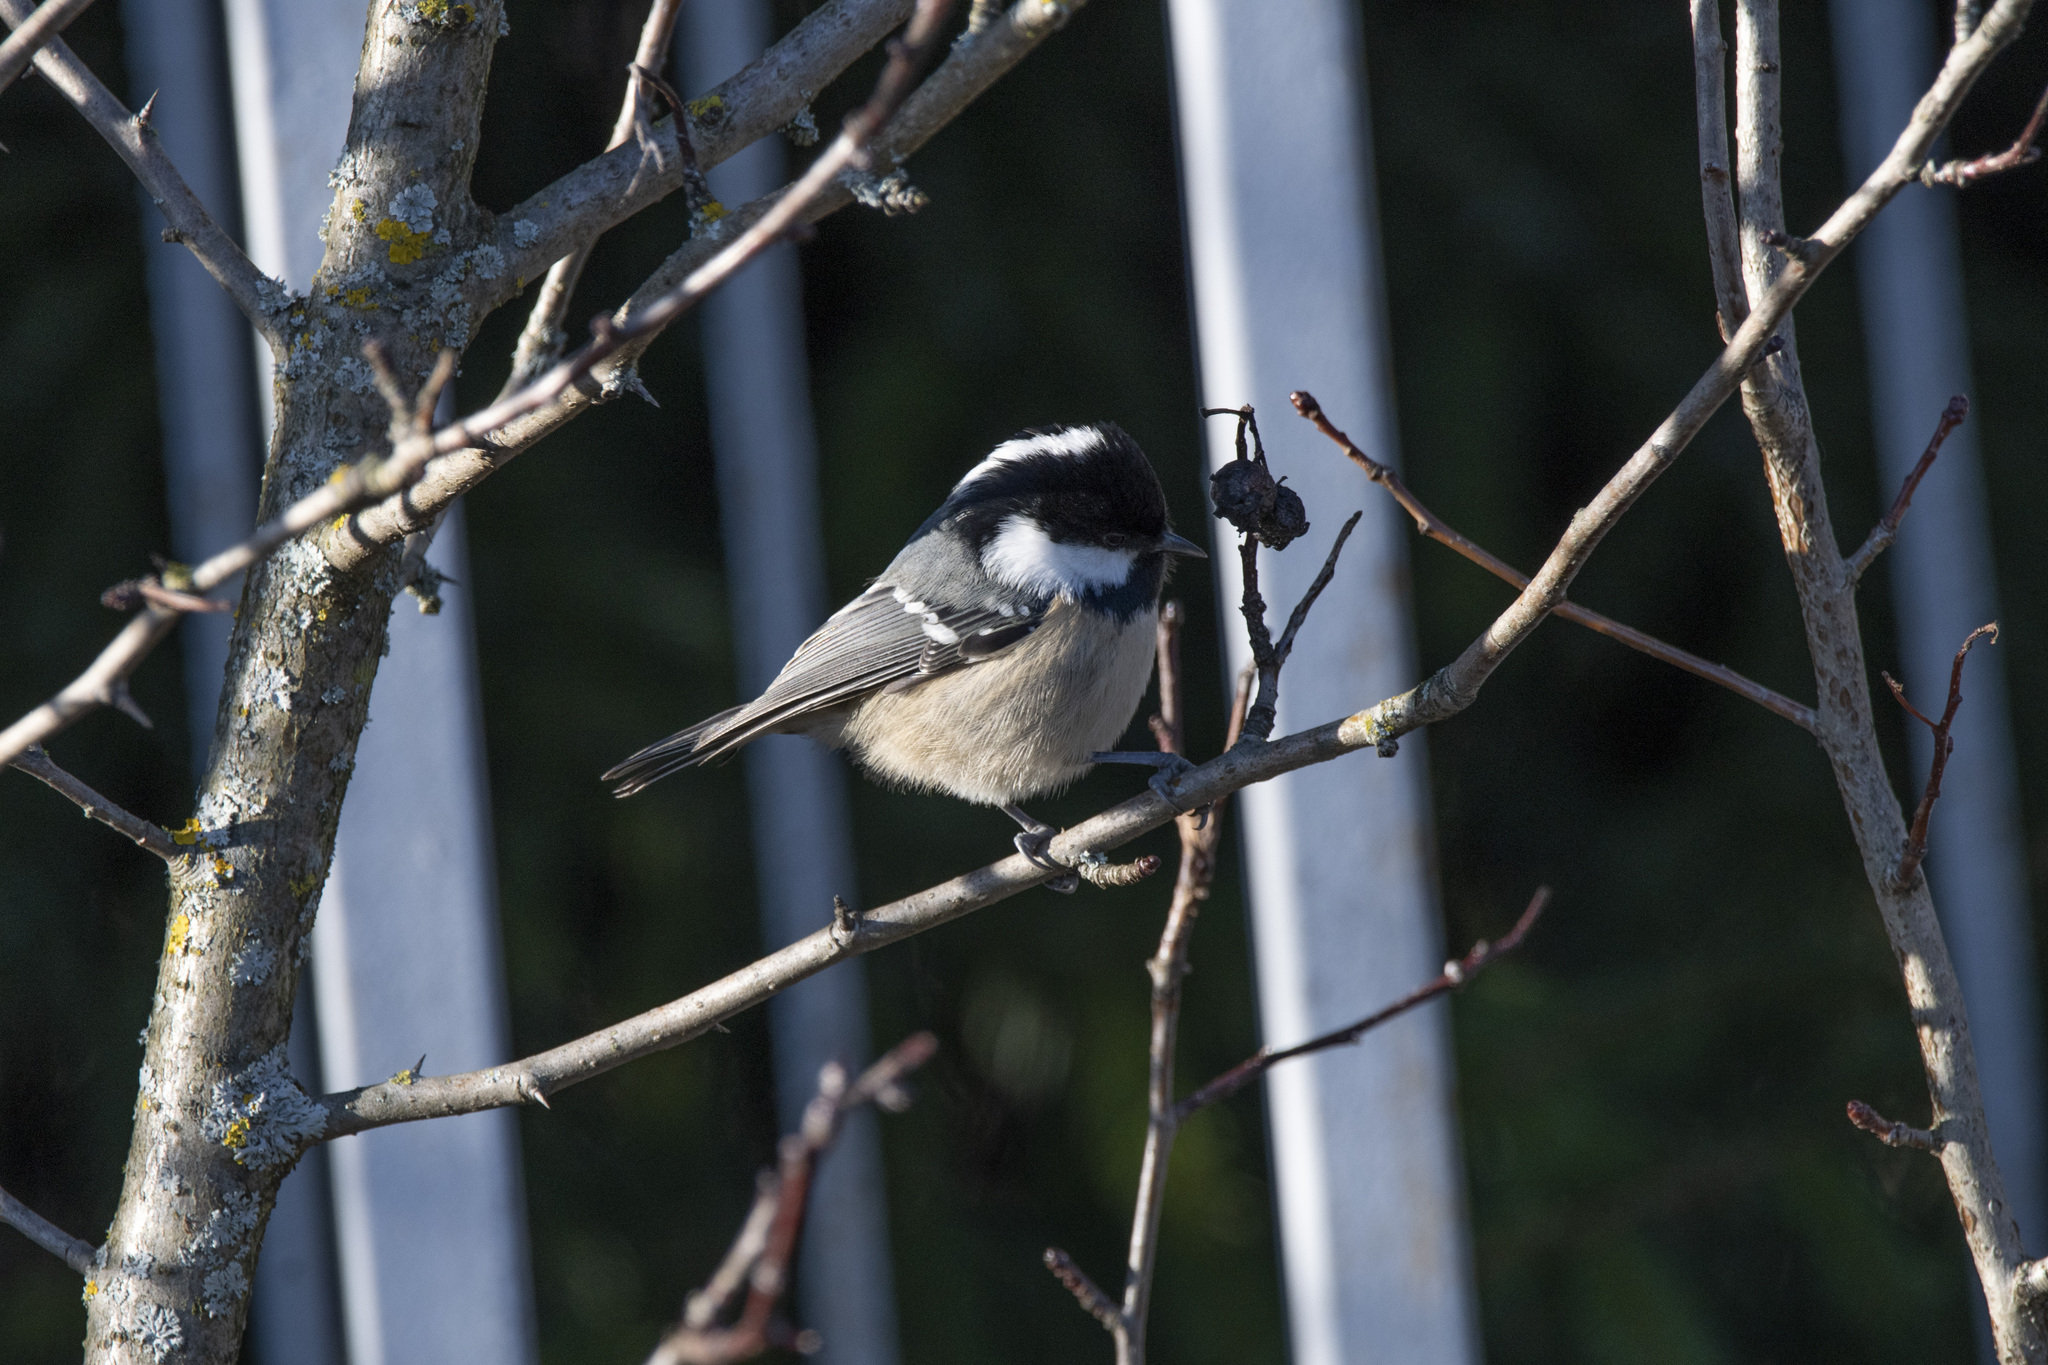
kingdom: Animalia
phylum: Chordata
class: Aves
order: Passeriformes
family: Paridae
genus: Periparus
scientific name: Periparus ater
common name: Coal tit
